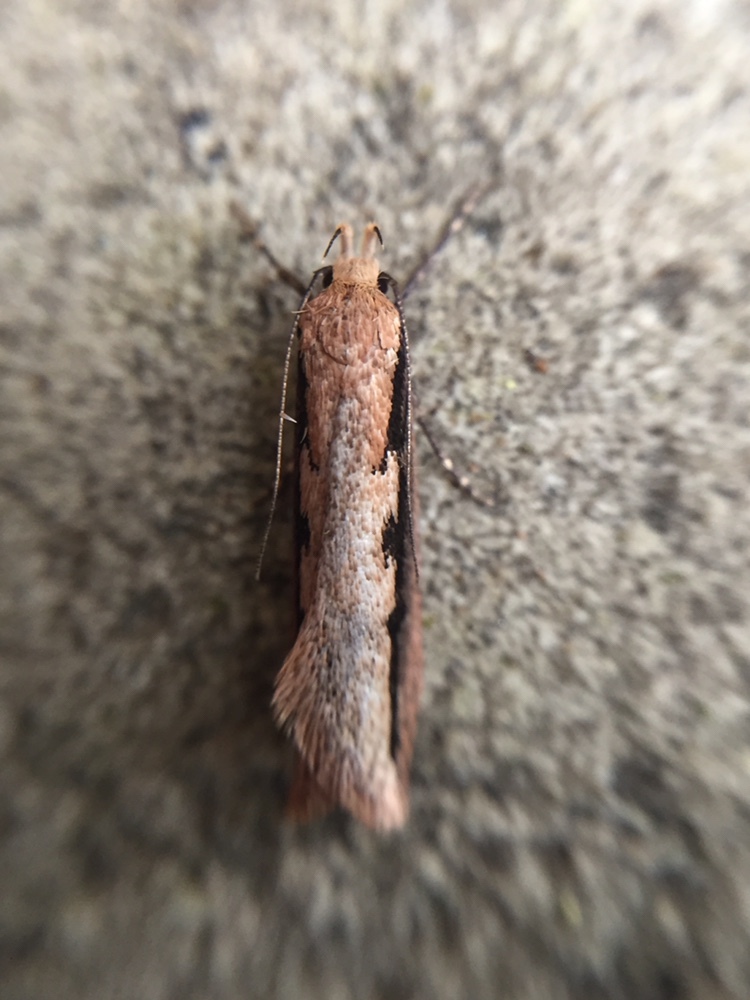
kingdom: Animalia
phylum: Arthropoda
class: Insecta
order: Lepidoptera
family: Oecophoridae
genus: Leptocroca
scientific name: Leptocroca sanguinolenta
